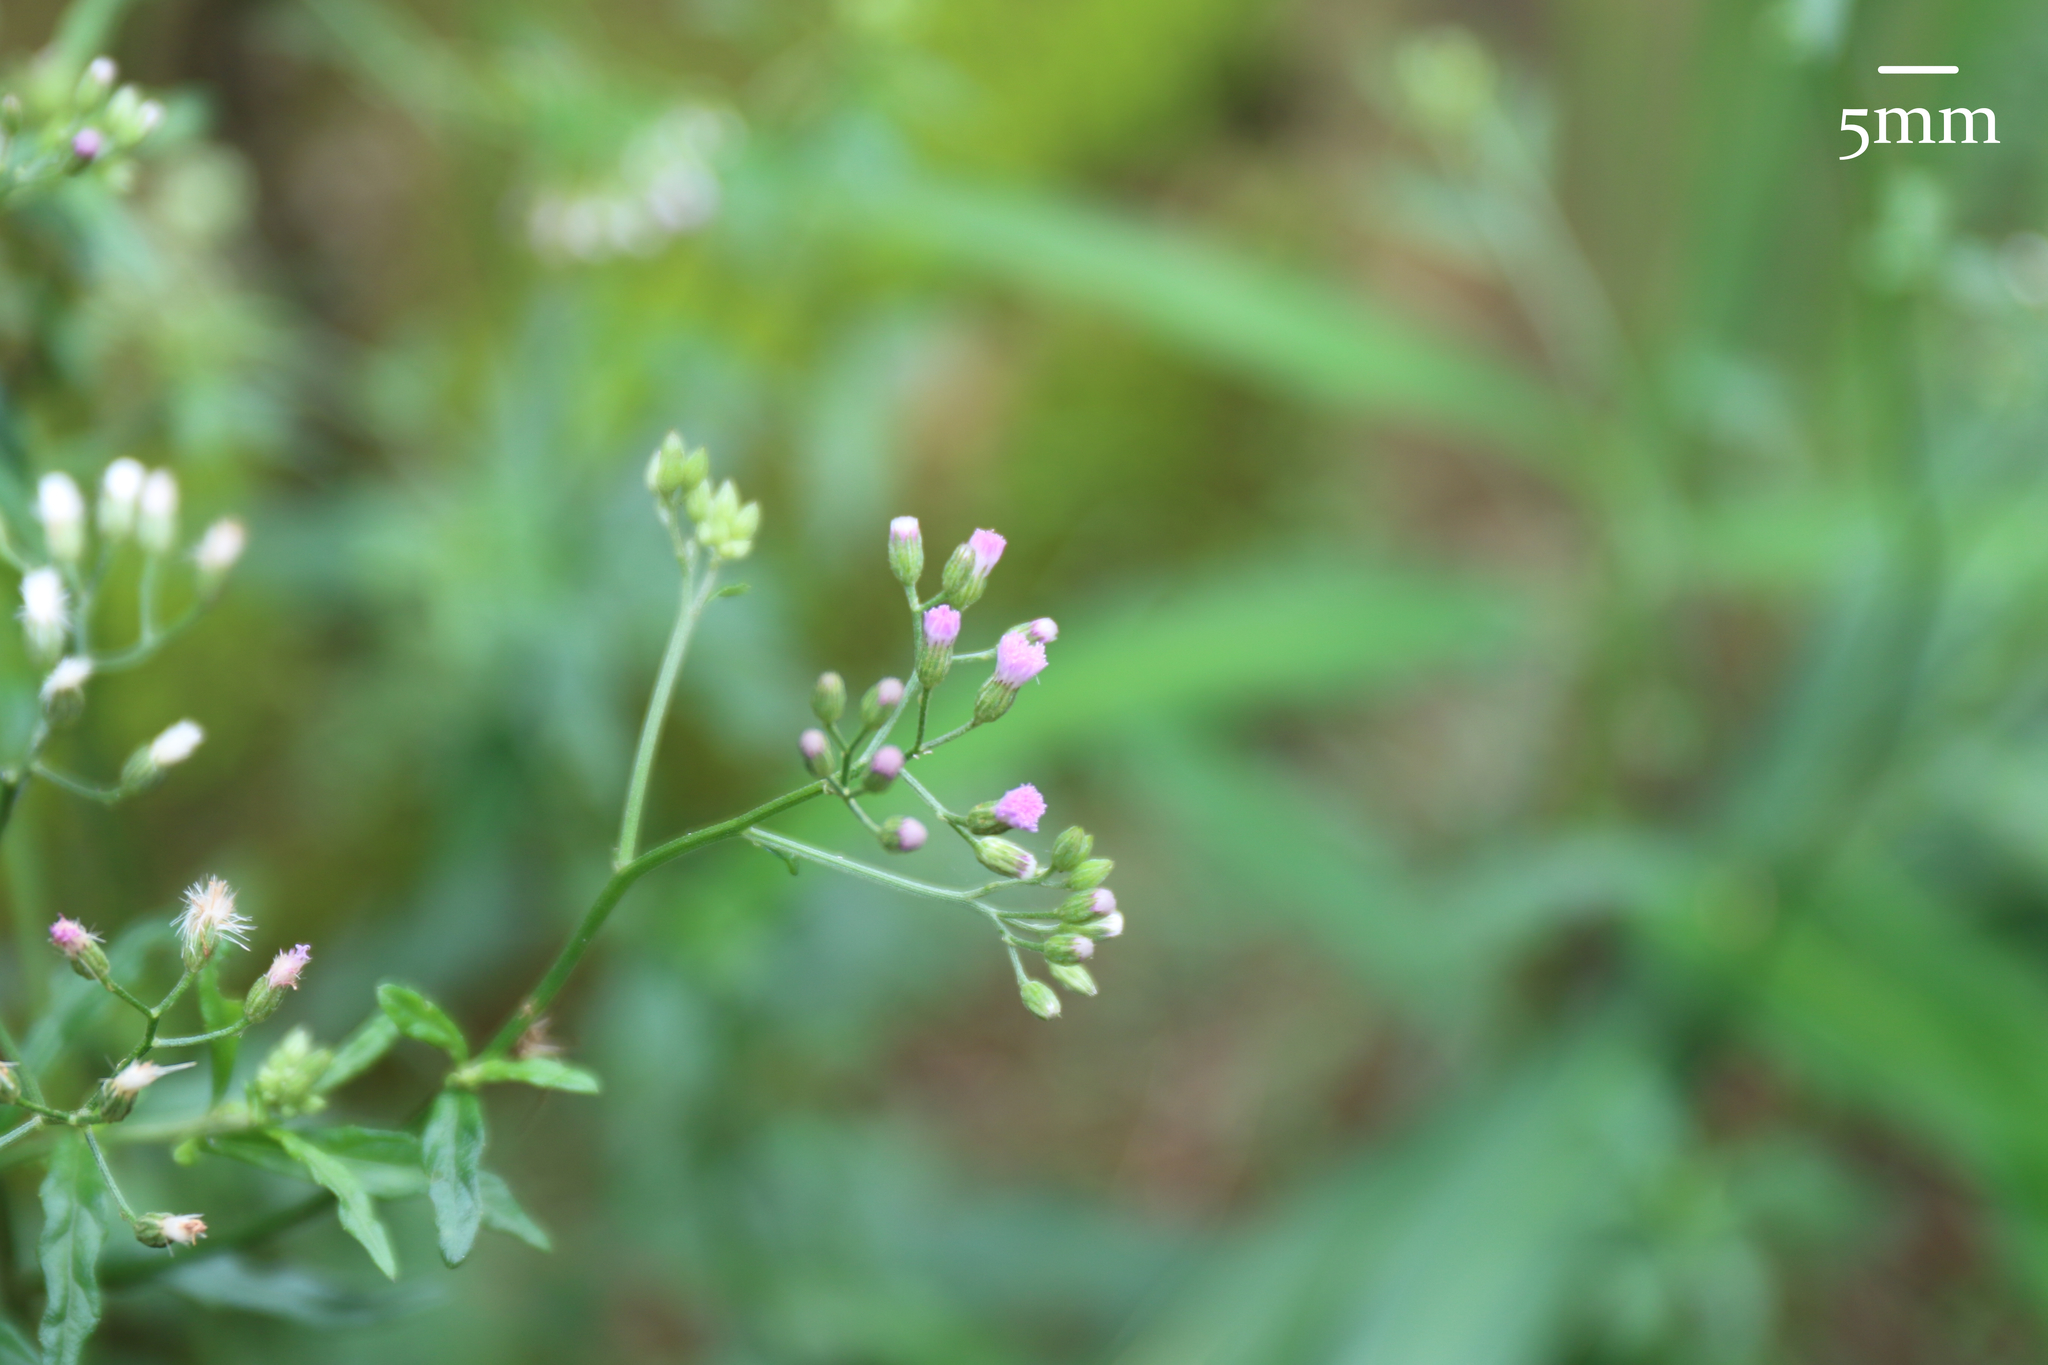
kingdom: Plantae
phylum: Tracheophyta
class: Magnoliopsida
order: Asterales
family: Asteraceae
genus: Cyanthillium
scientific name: Cyanthillium cinereum
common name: Little ironweed
